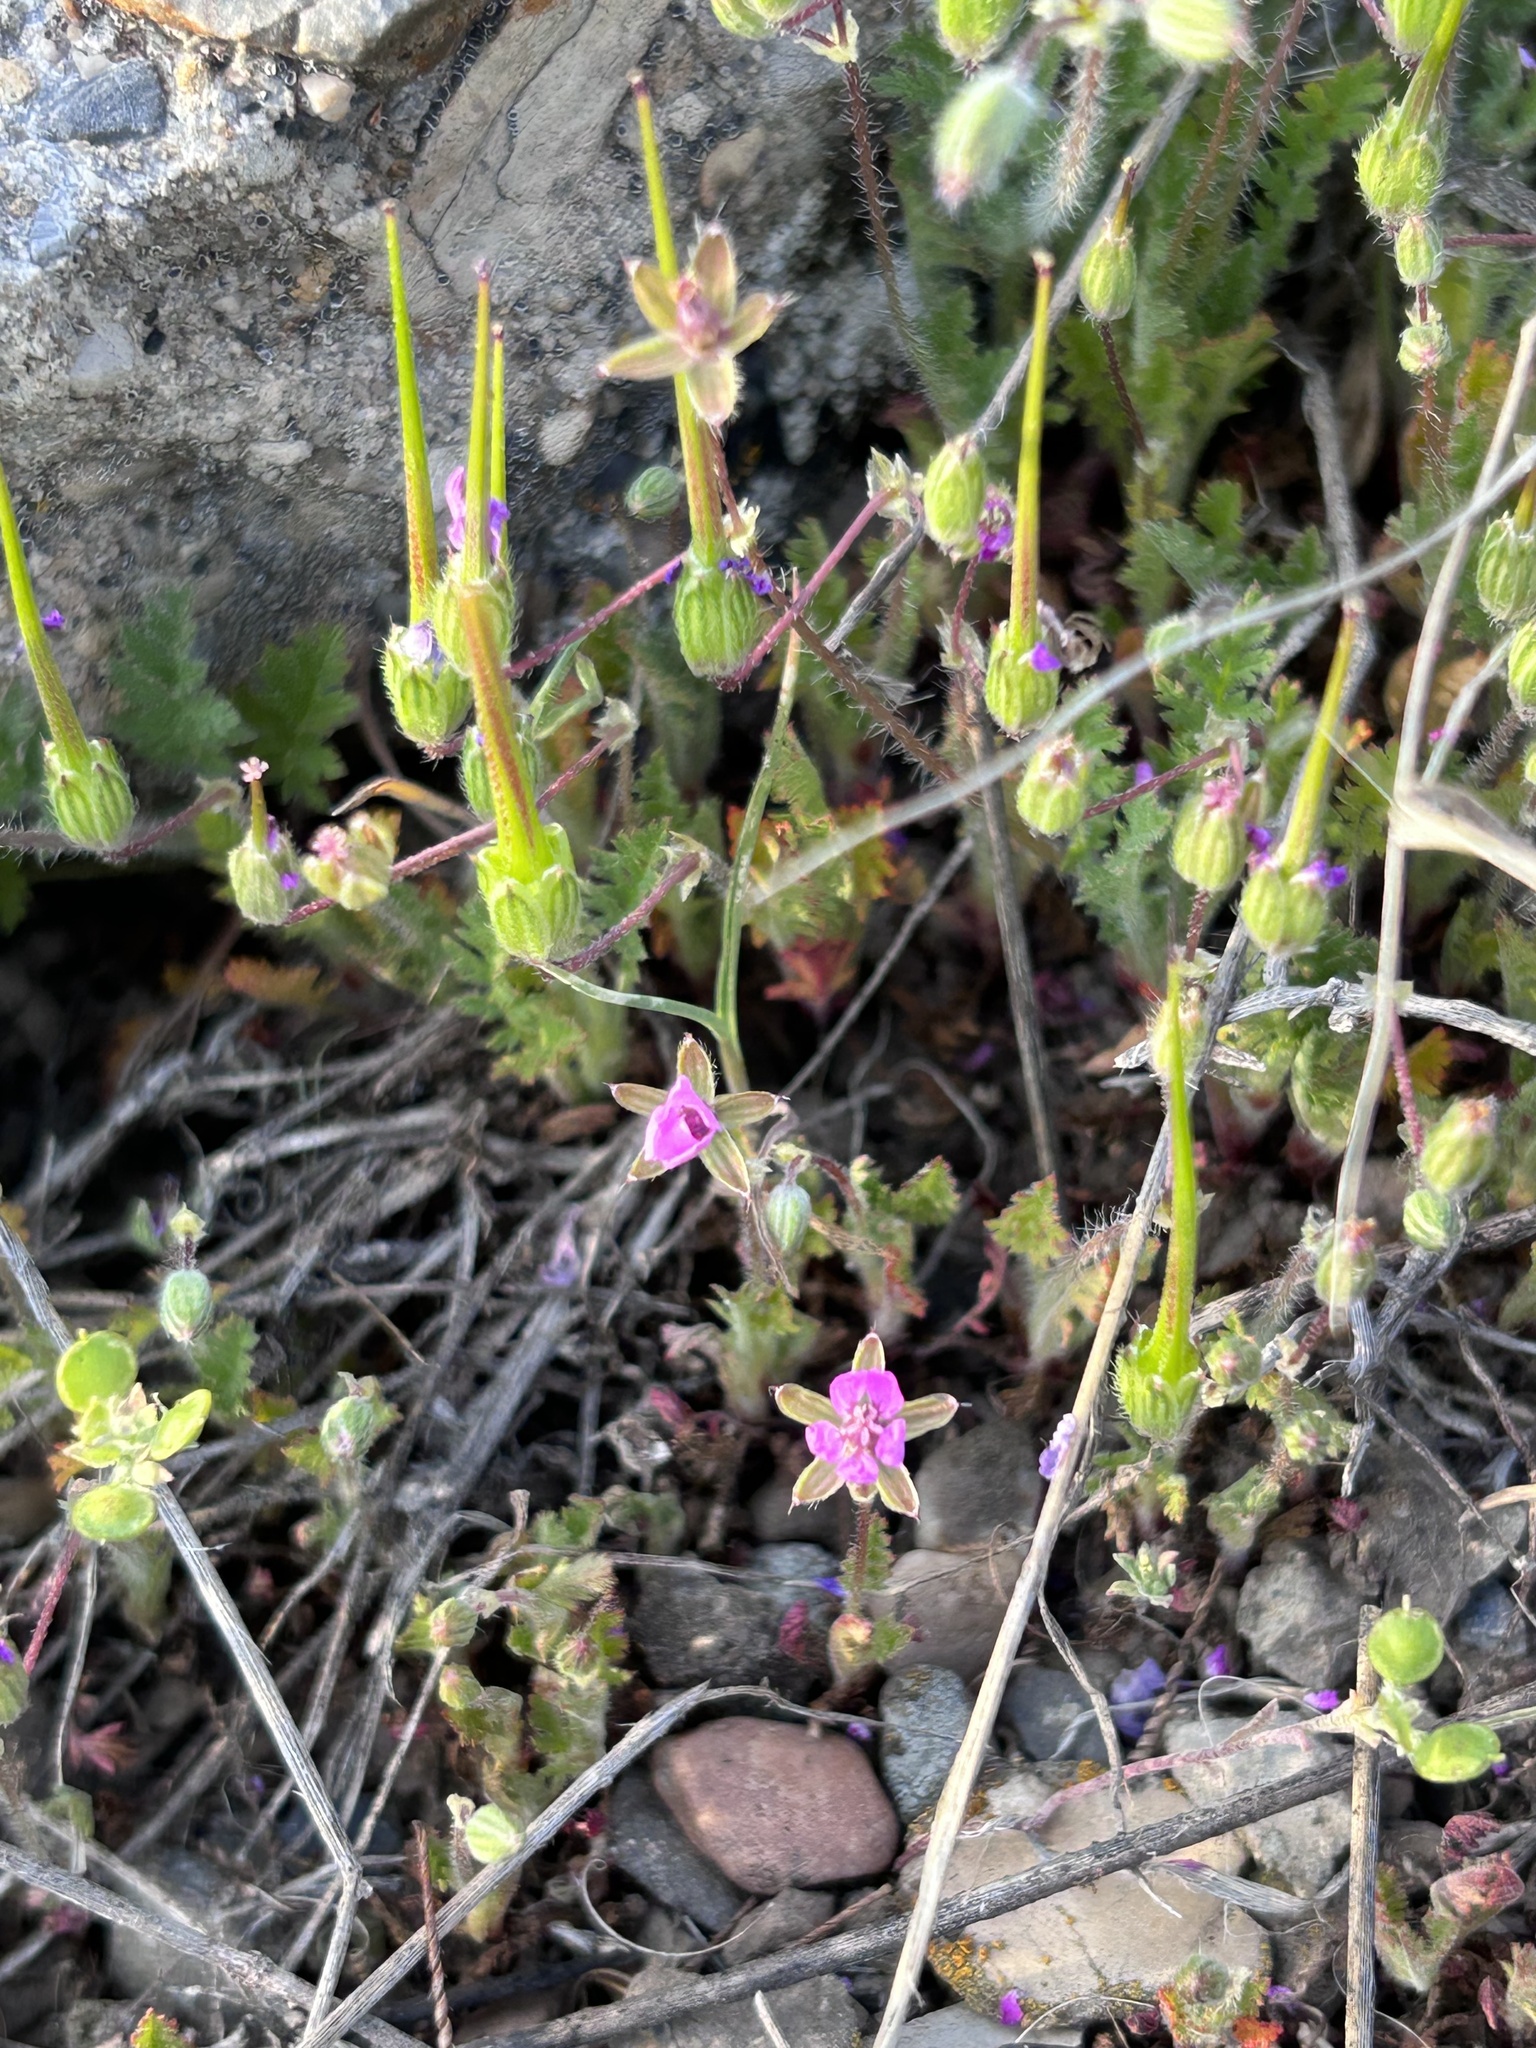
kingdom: Plantae
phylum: Tracheophyta
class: Magnoliopsida
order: Geraniales
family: Geraniaceae
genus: Erodium
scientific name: Erodium cicutarium
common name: Common stork's-bill
